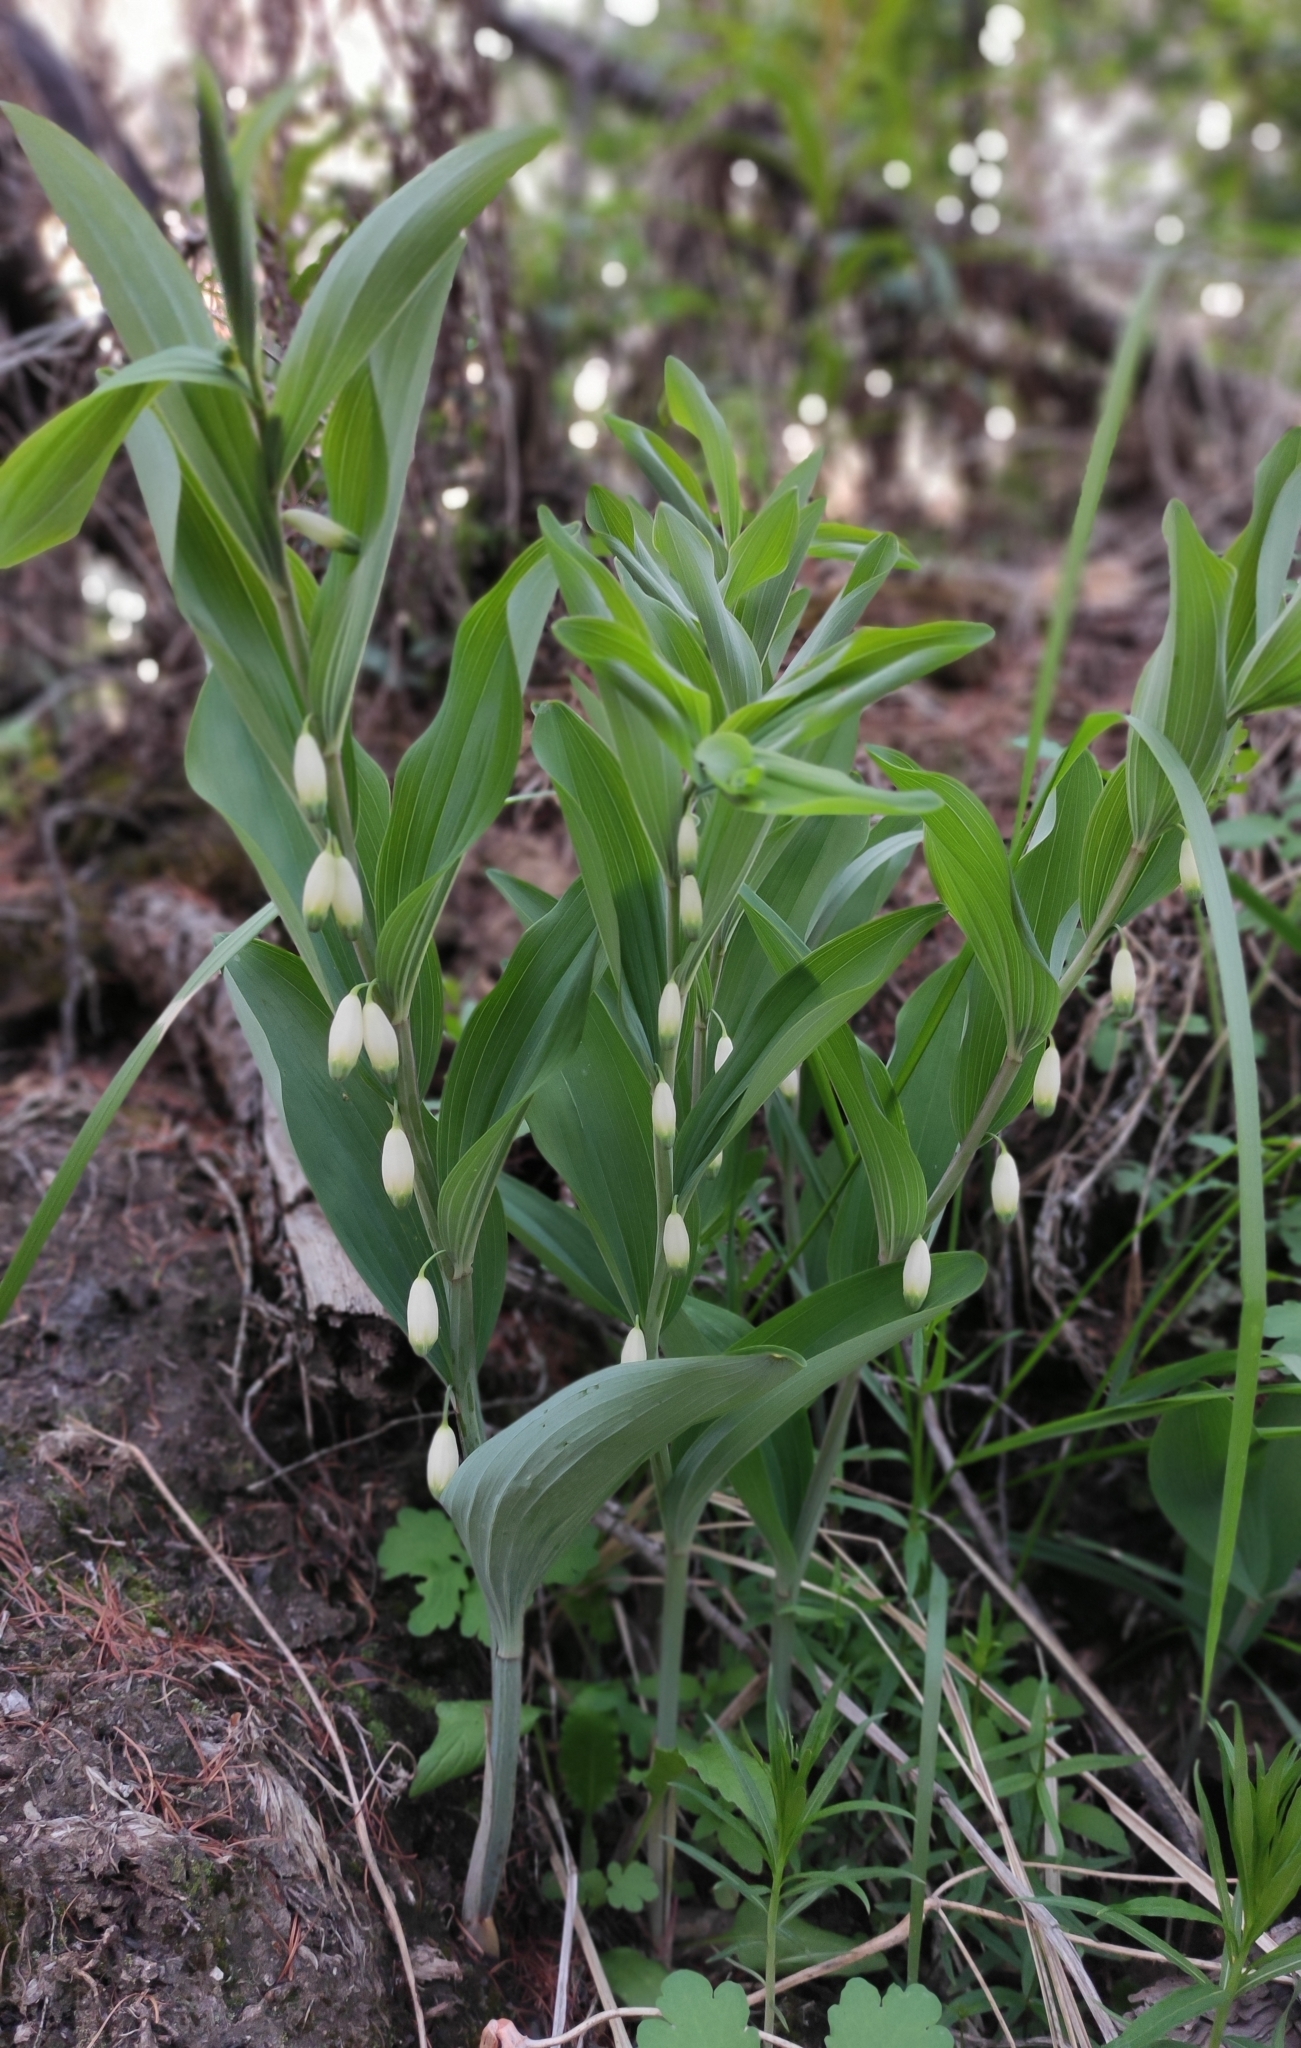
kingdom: Plantae
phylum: Tracheophyta
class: Liliopsida
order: Asparagales
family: Asparagaceae
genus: Polygonatum
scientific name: Polygonatum odoratum
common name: Angular solomon's-seal
